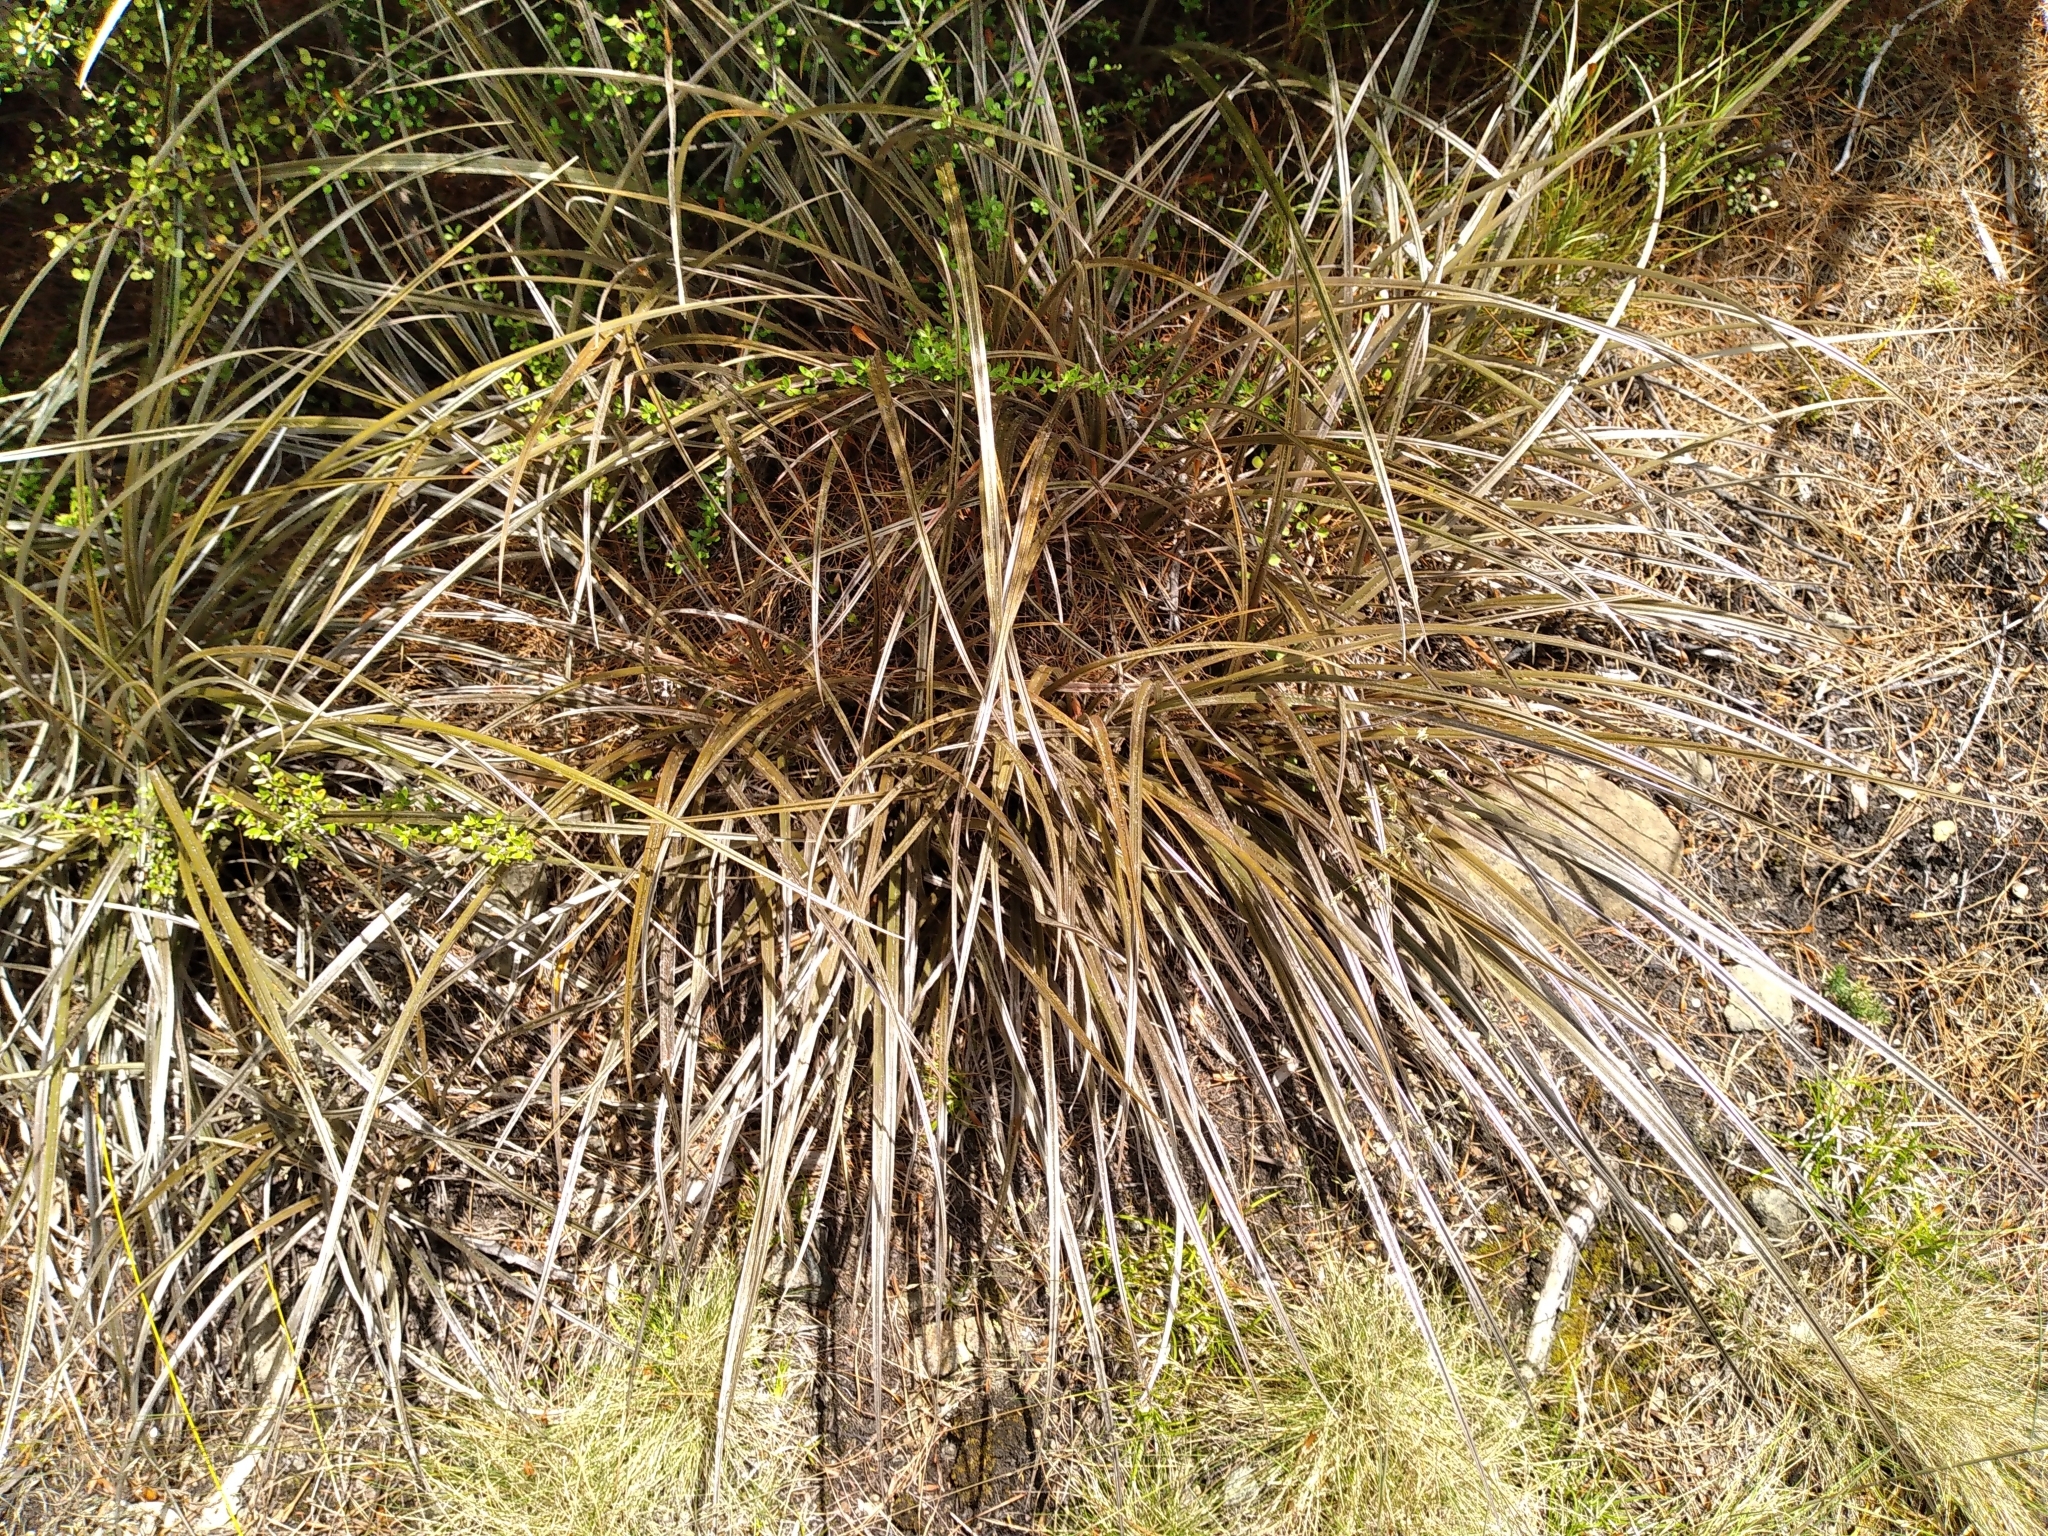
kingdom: Plantae
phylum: Tracheophyta
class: Liliopsida
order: Asparagales
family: Asteliaceae
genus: Astelia
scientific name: Astelia graminea
